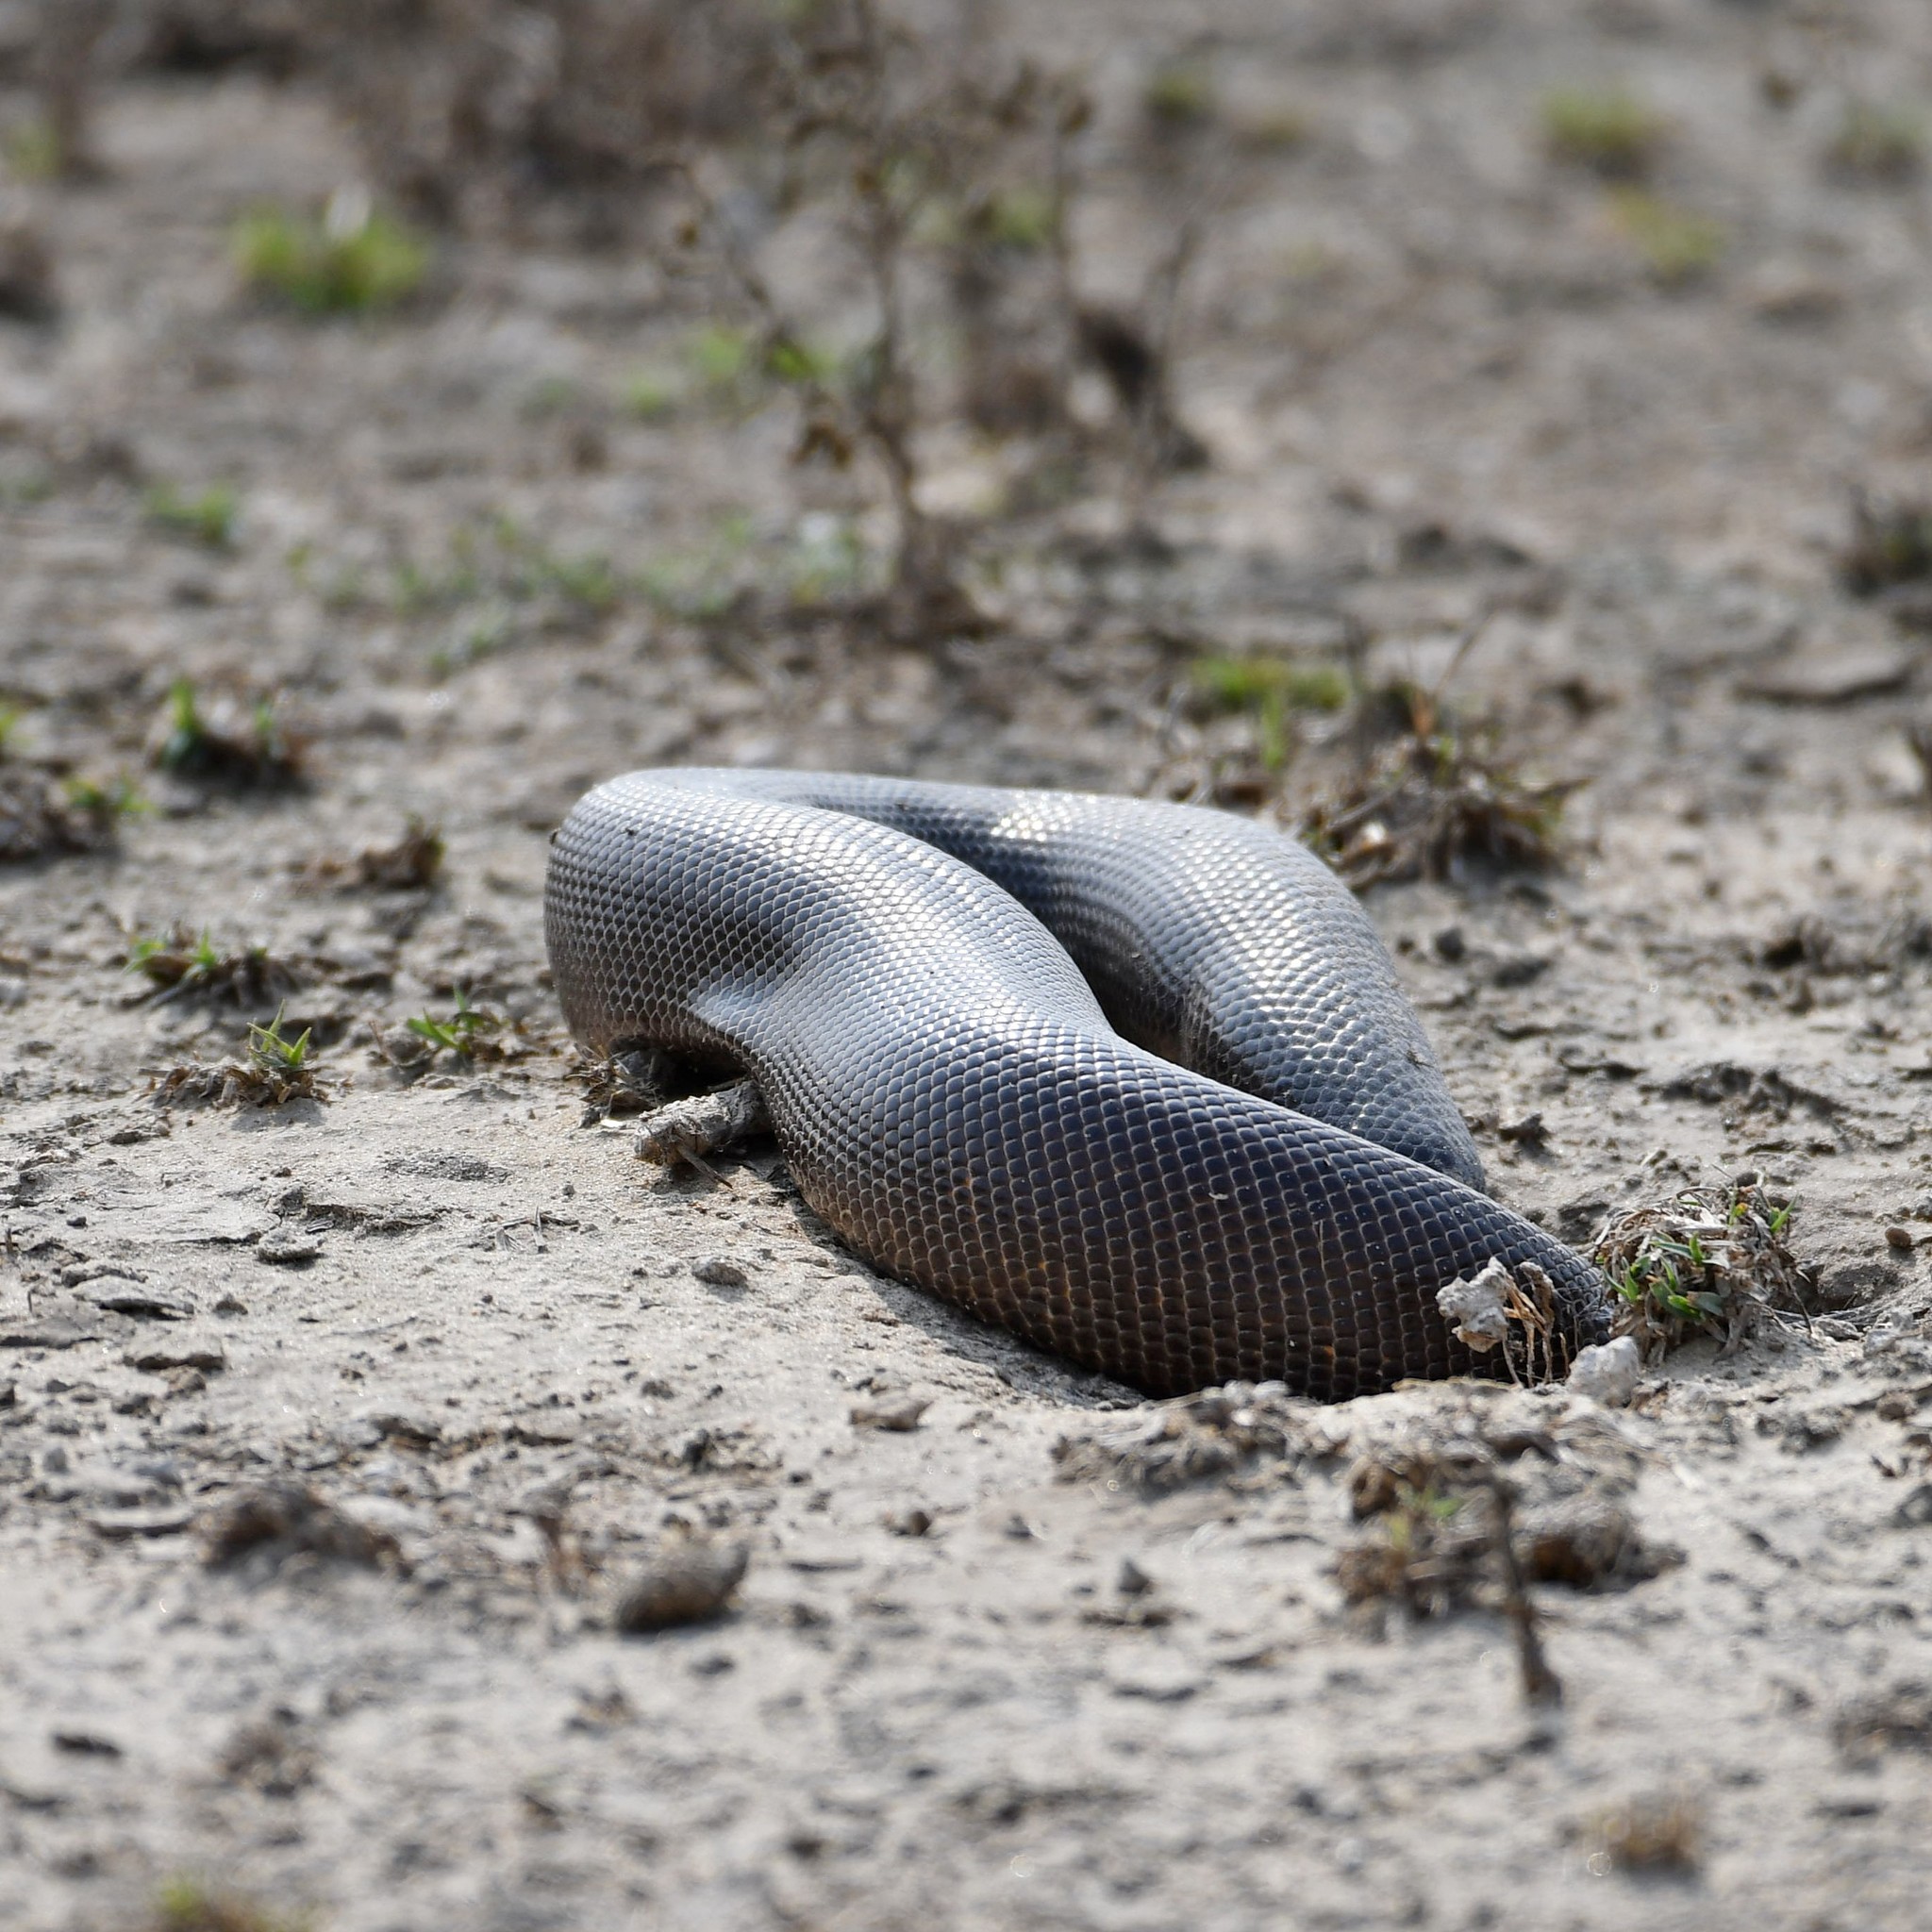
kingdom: Animalia
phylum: Chordata
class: Squamata
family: Boidae
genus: Eryx
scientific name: Eryx johnii
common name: Brown sand boa
